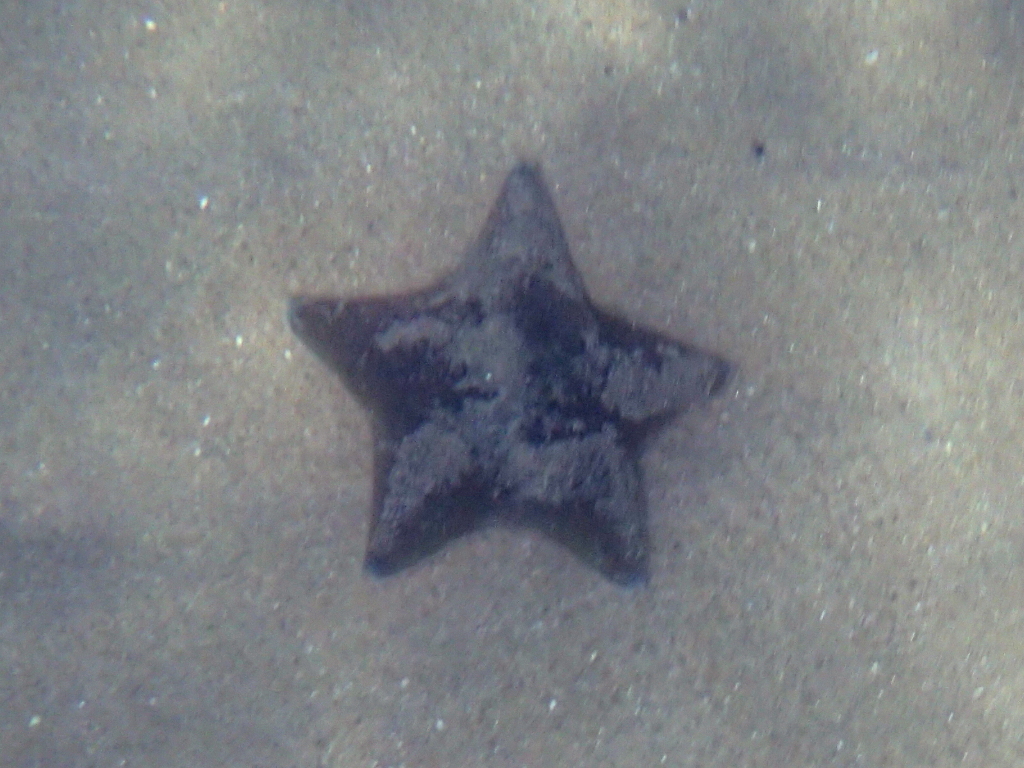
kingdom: Animalia
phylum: Echinodermata
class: Asteroidea
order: Valvatida
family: Asterinidae
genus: Patiriella
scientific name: Patiriella regularis
